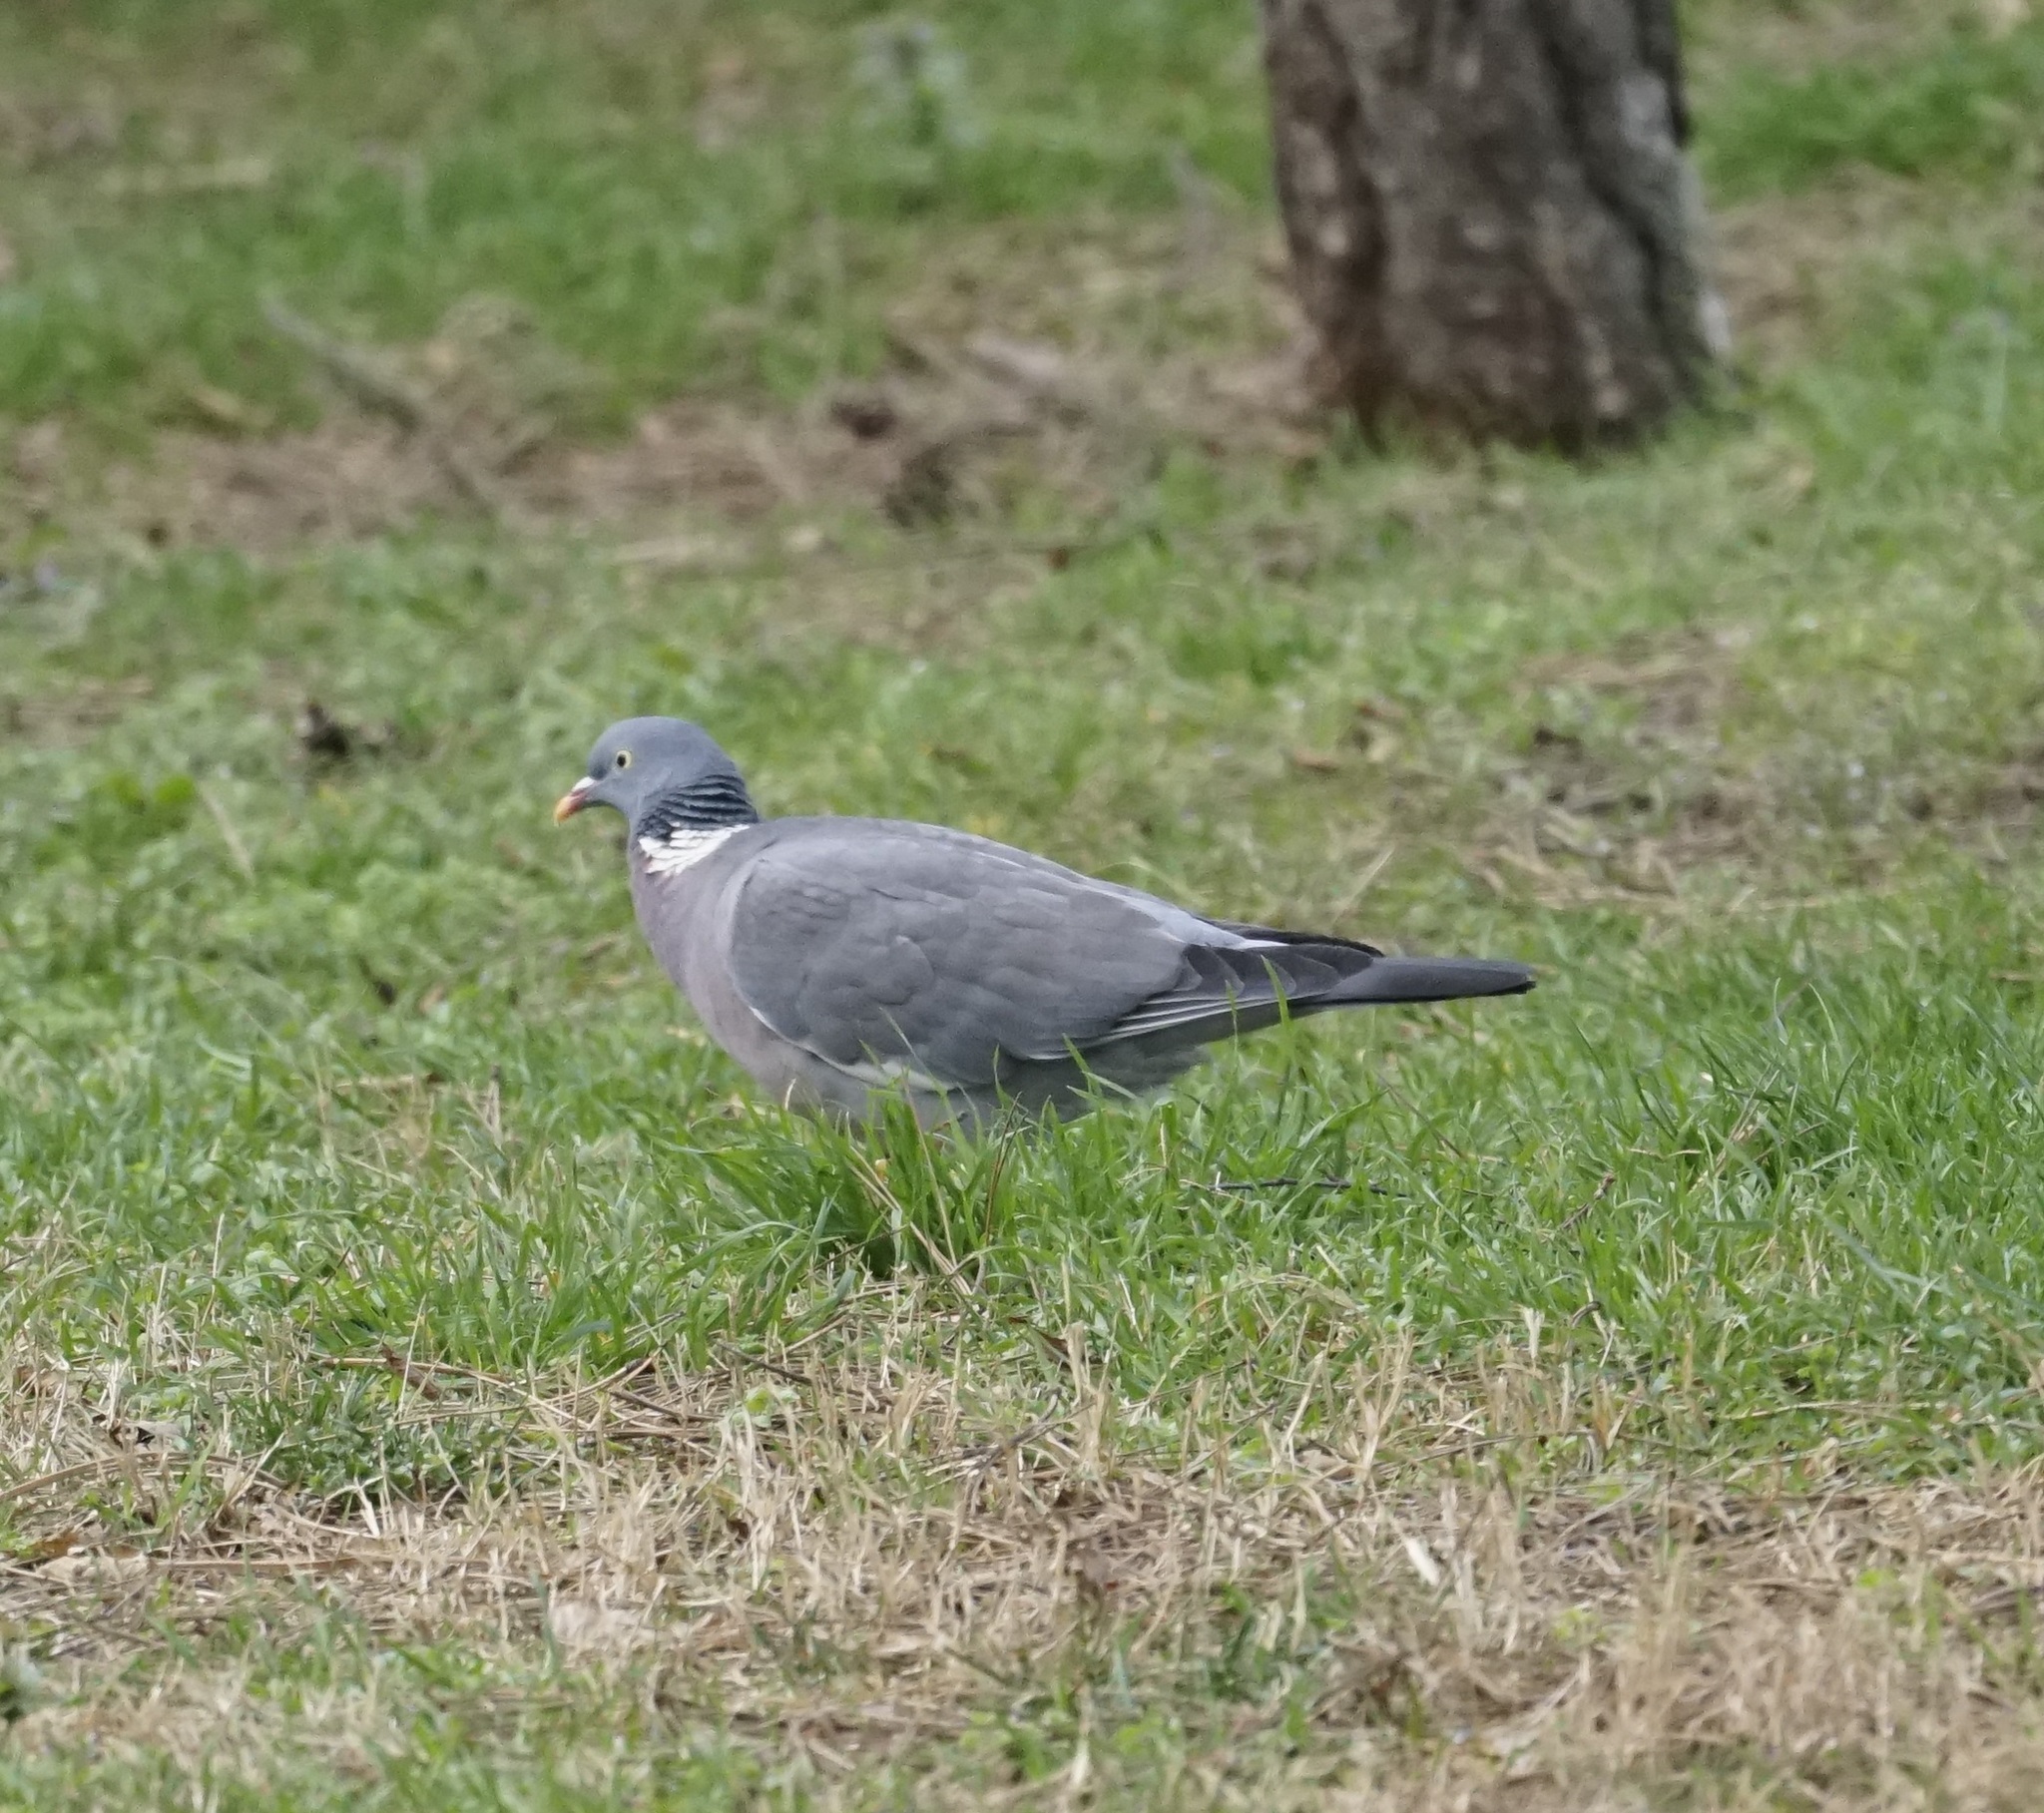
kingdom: Animalia
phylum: Chordata
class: Aves
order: Columbiformes
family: Columbidae
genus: Columba
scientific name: Columba palumbus
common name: Common wood pigeon
